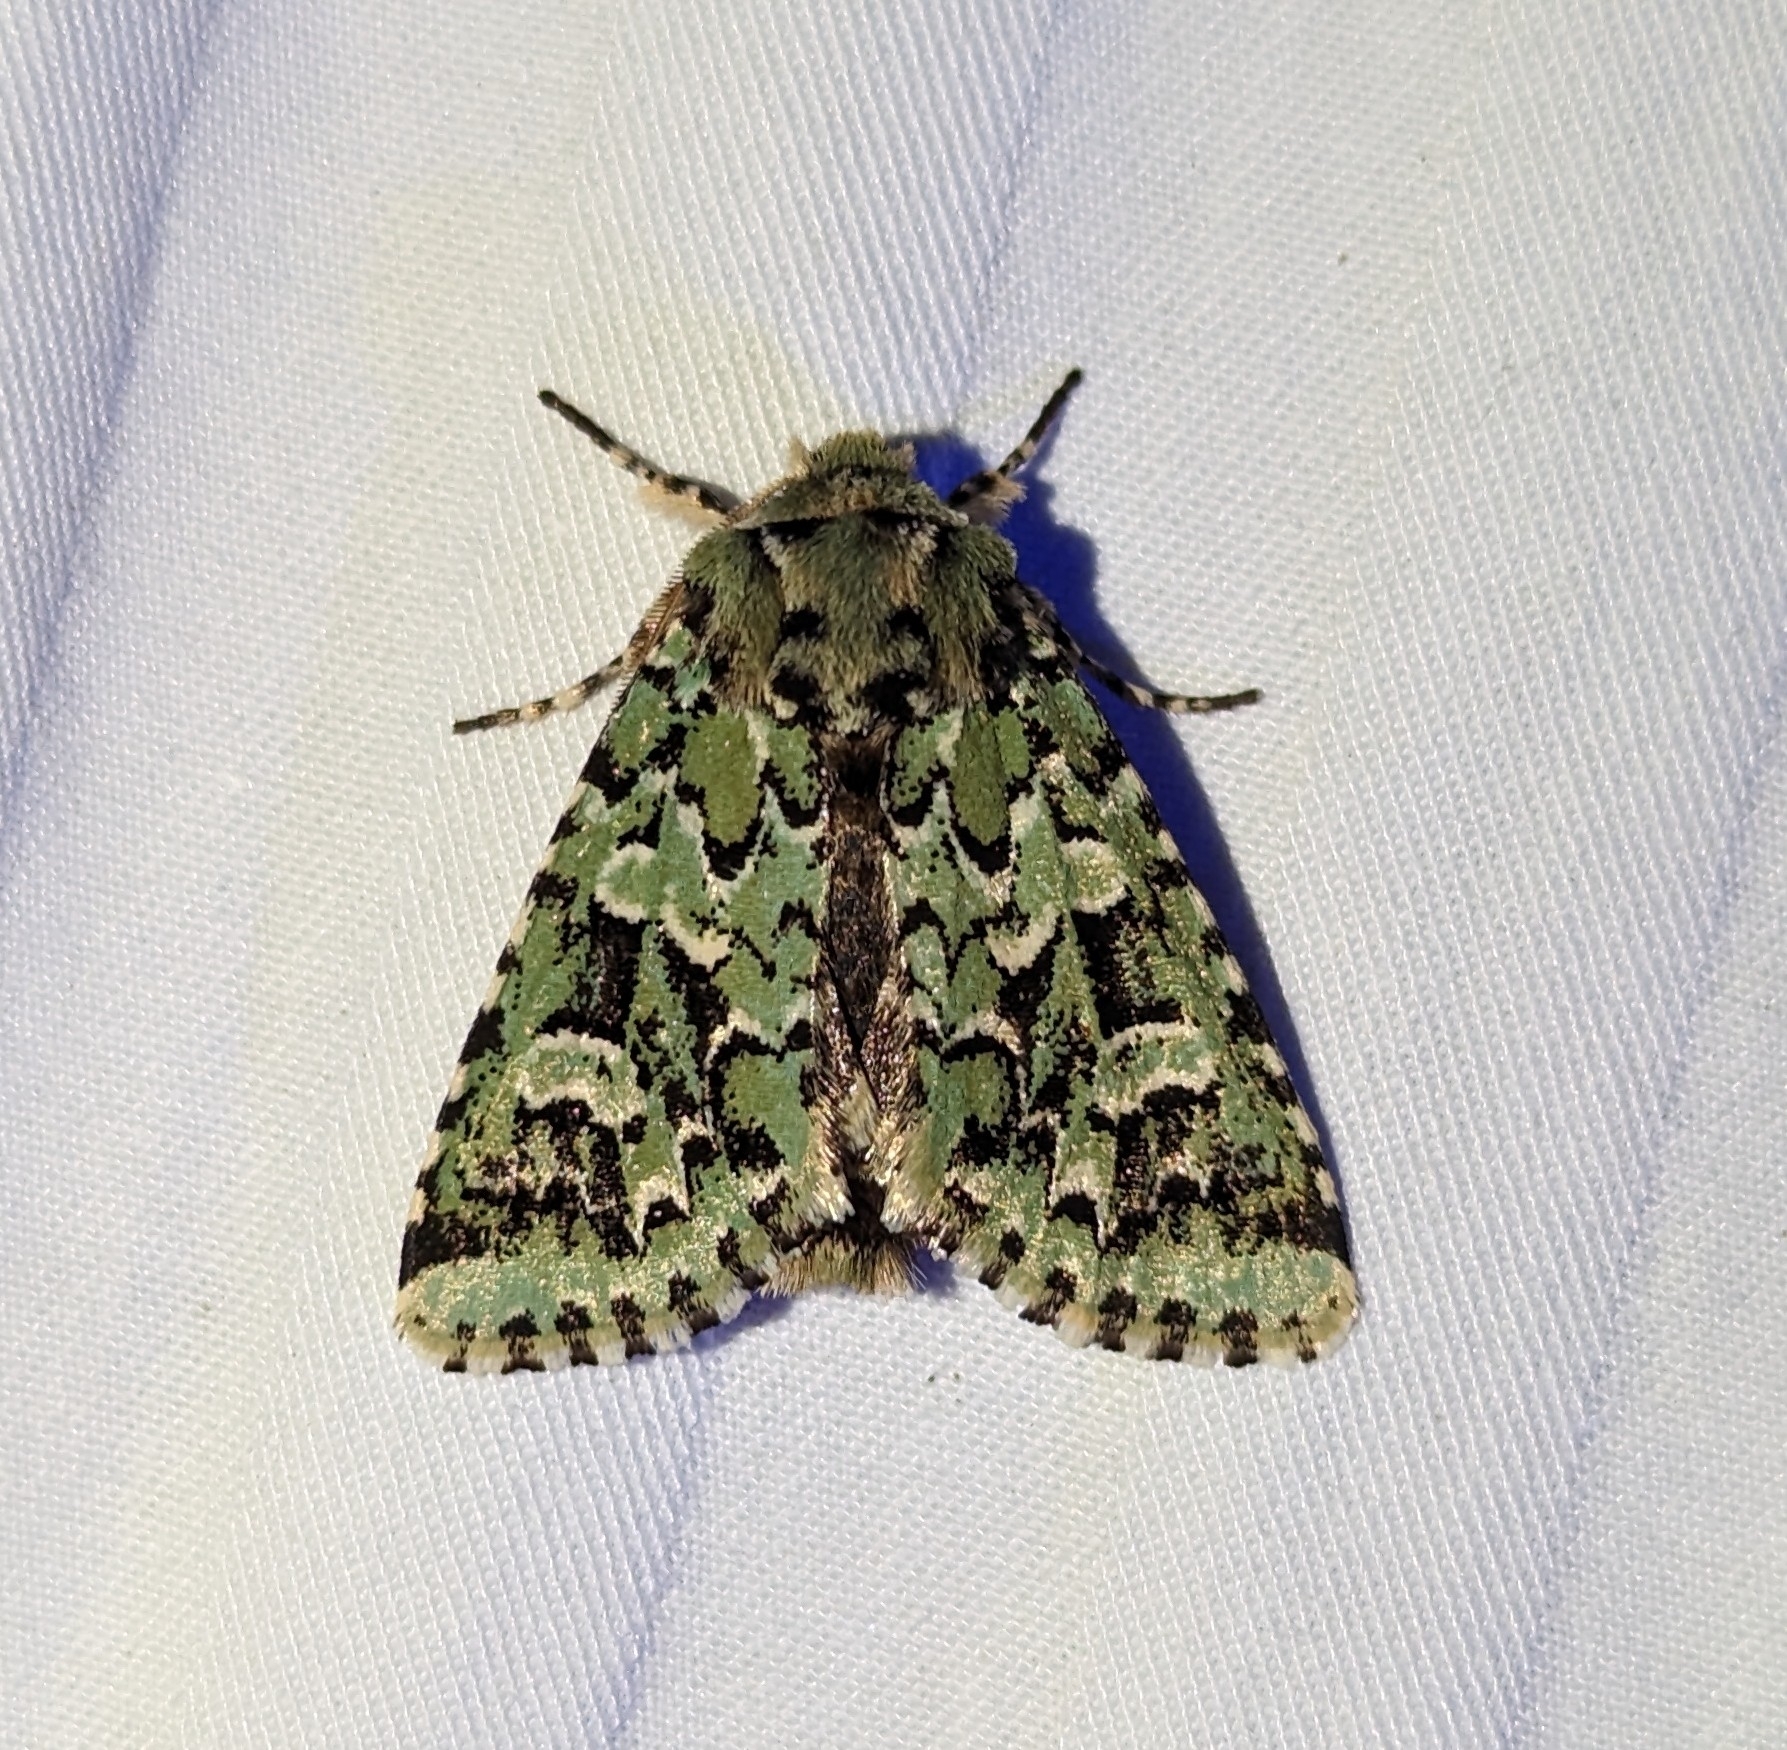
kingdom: Animalia
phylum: Arthropoda
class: Insecta
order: Lepidoptera
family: Noctuidae
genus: Feralia
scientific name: Feralia comstocki
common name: Comstock's sallow
